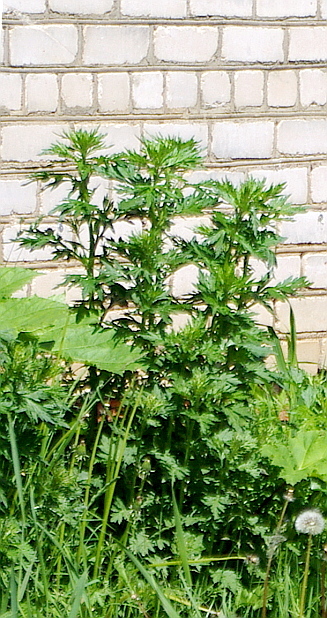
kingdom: Plantae
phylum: Tracheophyta
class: Magnoliopsida
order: Asterales
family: Asteraceae
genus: Artemisia
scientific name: Artemisia vulgaris
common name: Mugwort
